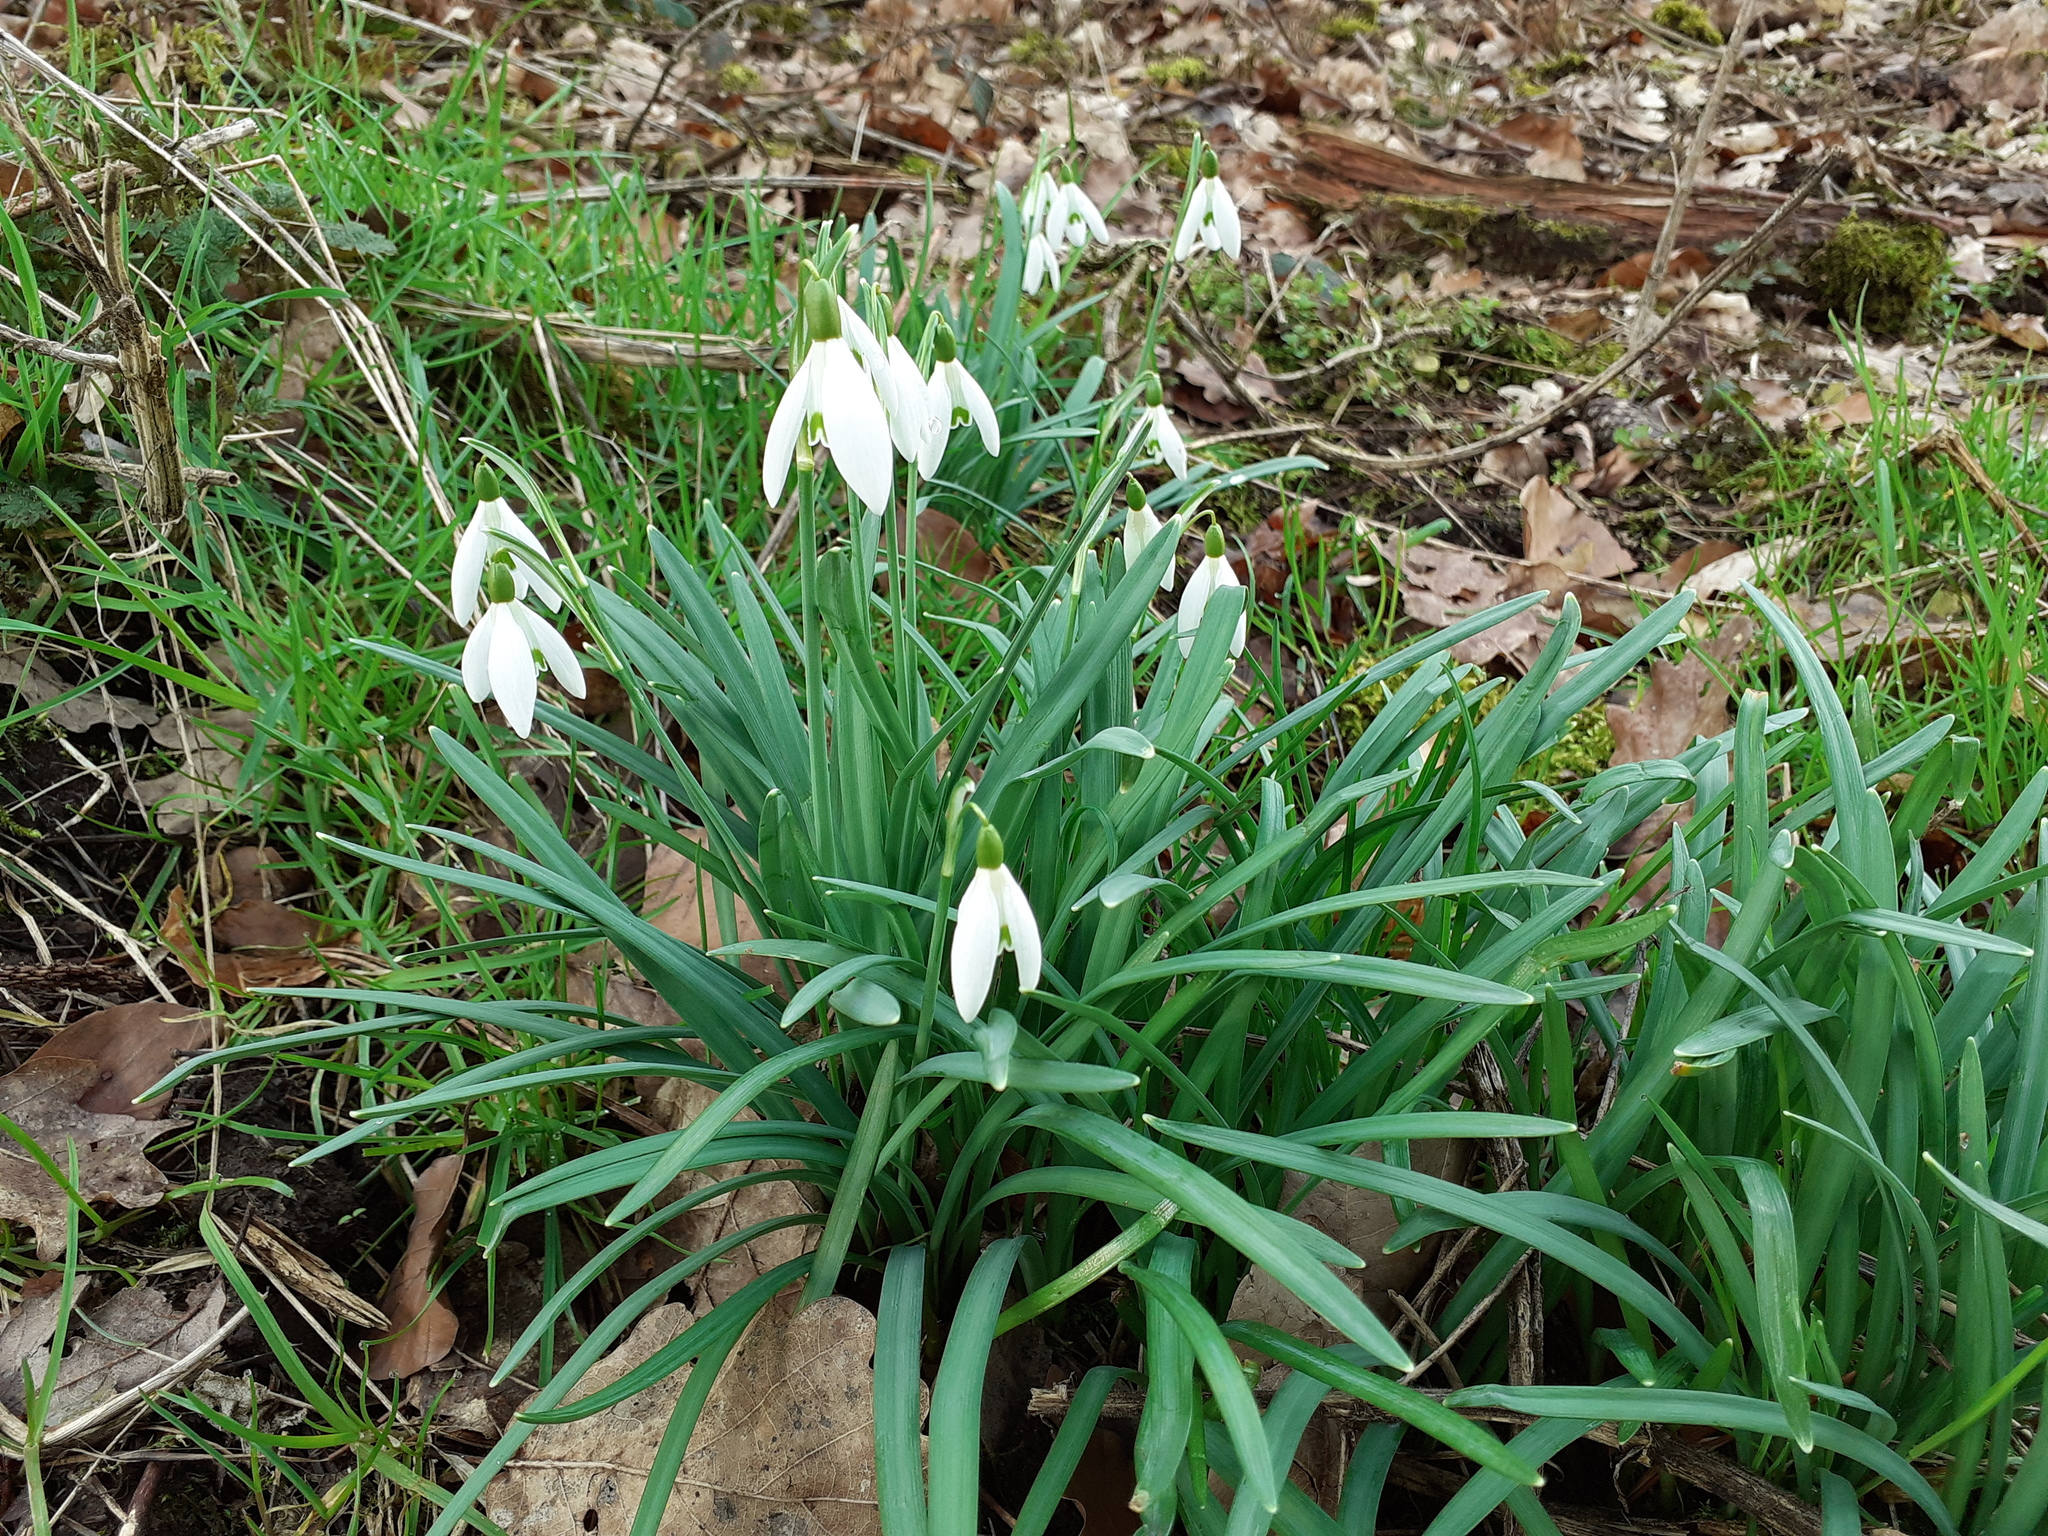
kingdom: Plantae
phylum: Tracheophyta
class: Liliopsida
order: Asparagales
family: Amaryllidaceae
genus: Galanthus
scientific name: Galanthus nivalis
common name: Snowdrop
